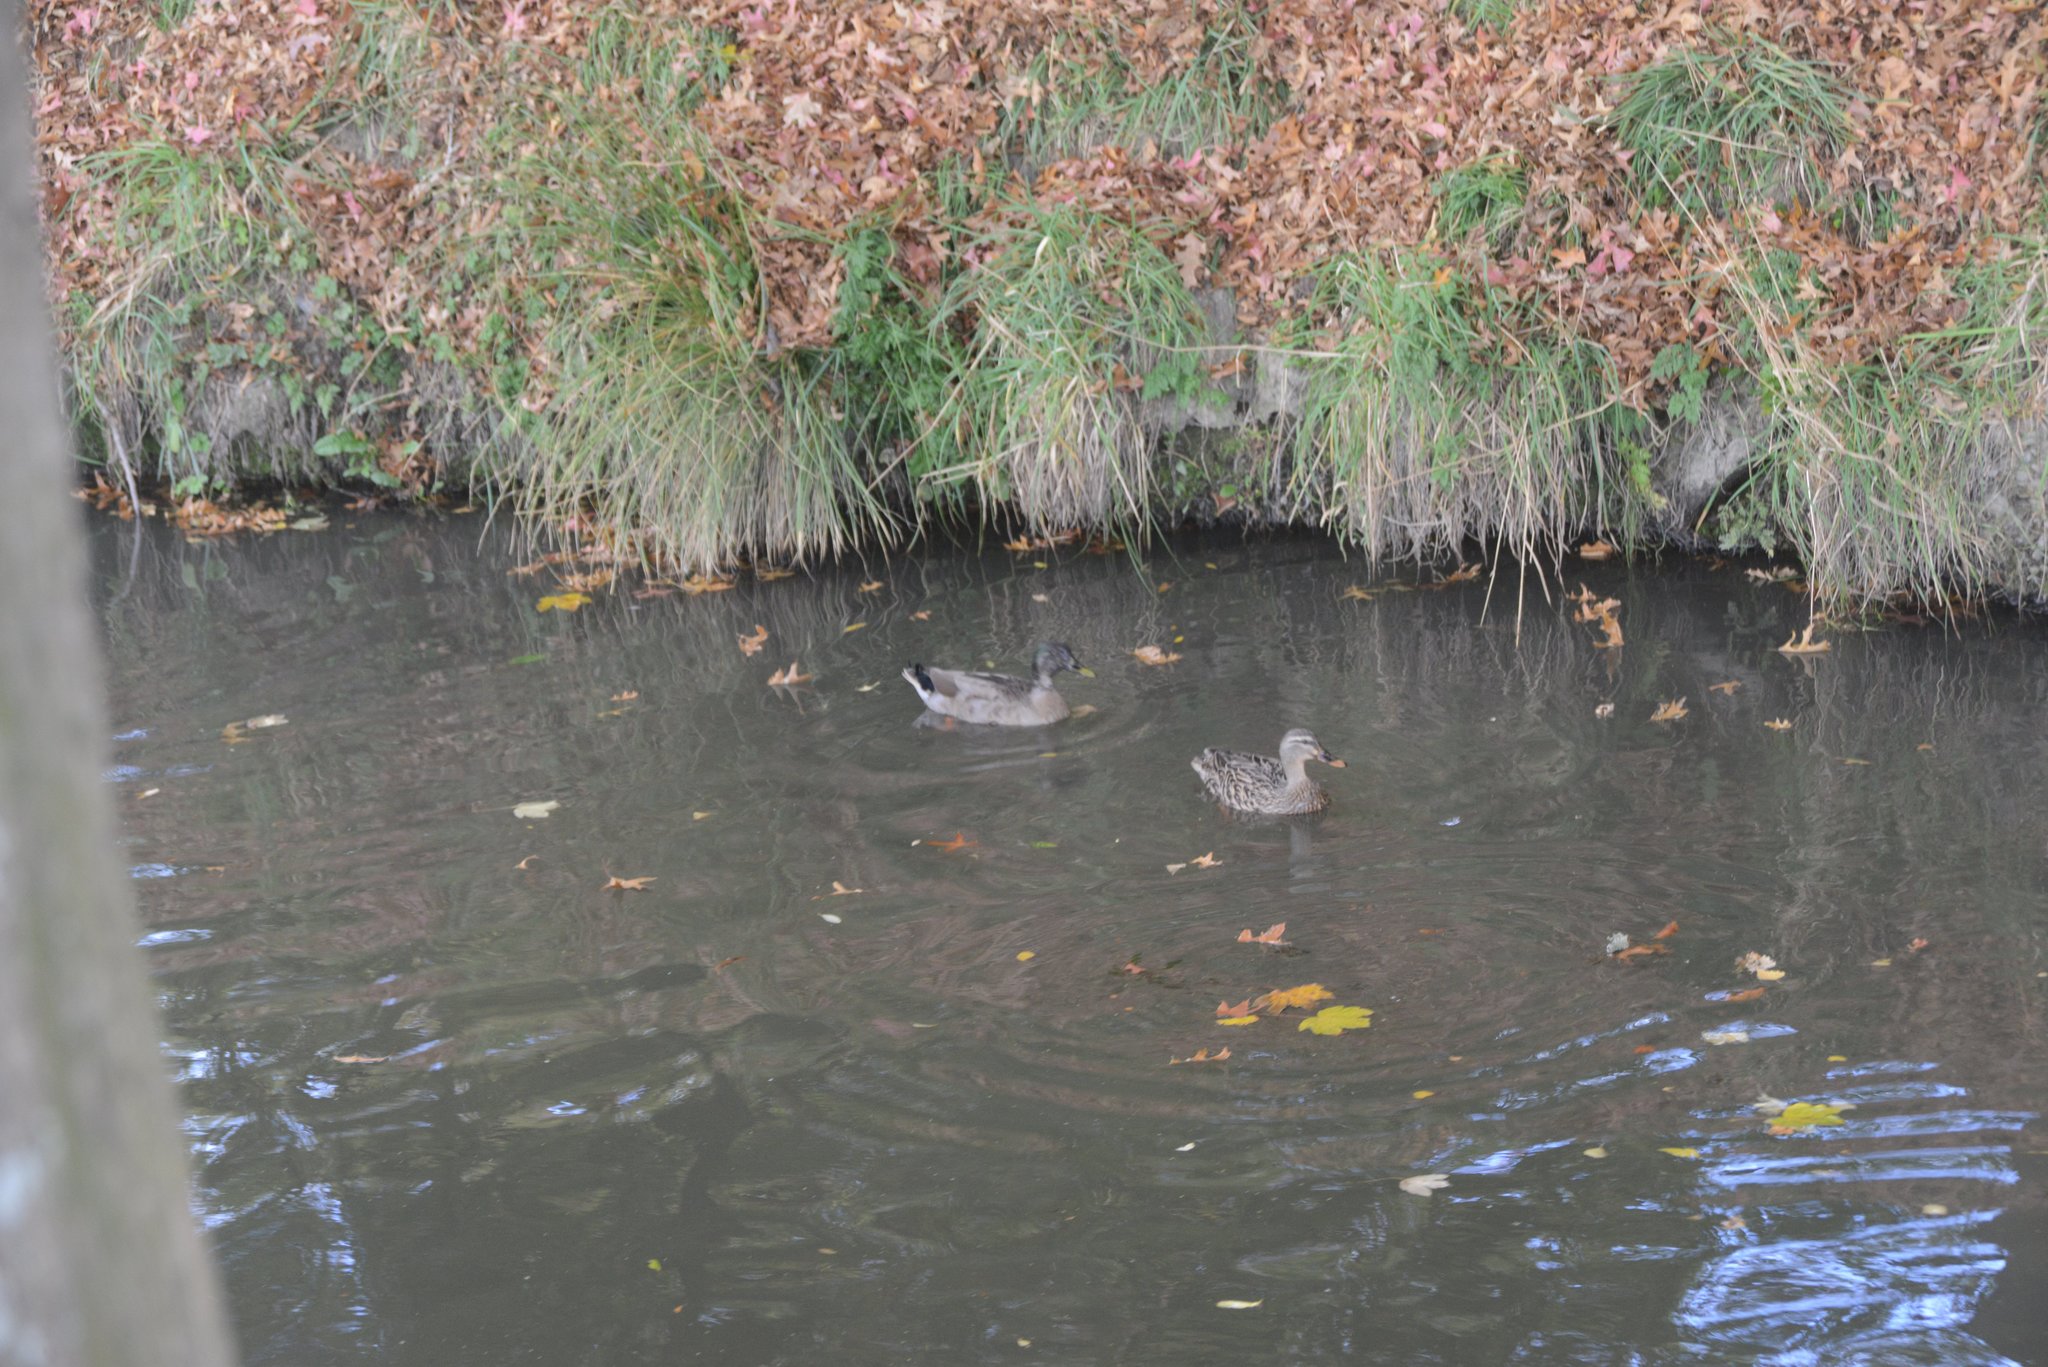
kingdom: Animalia
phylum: Chordata
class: Aves
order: Anseriformes
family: Anatidae
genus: Anas
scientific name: Anas platyrhynchos
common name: Mallard
